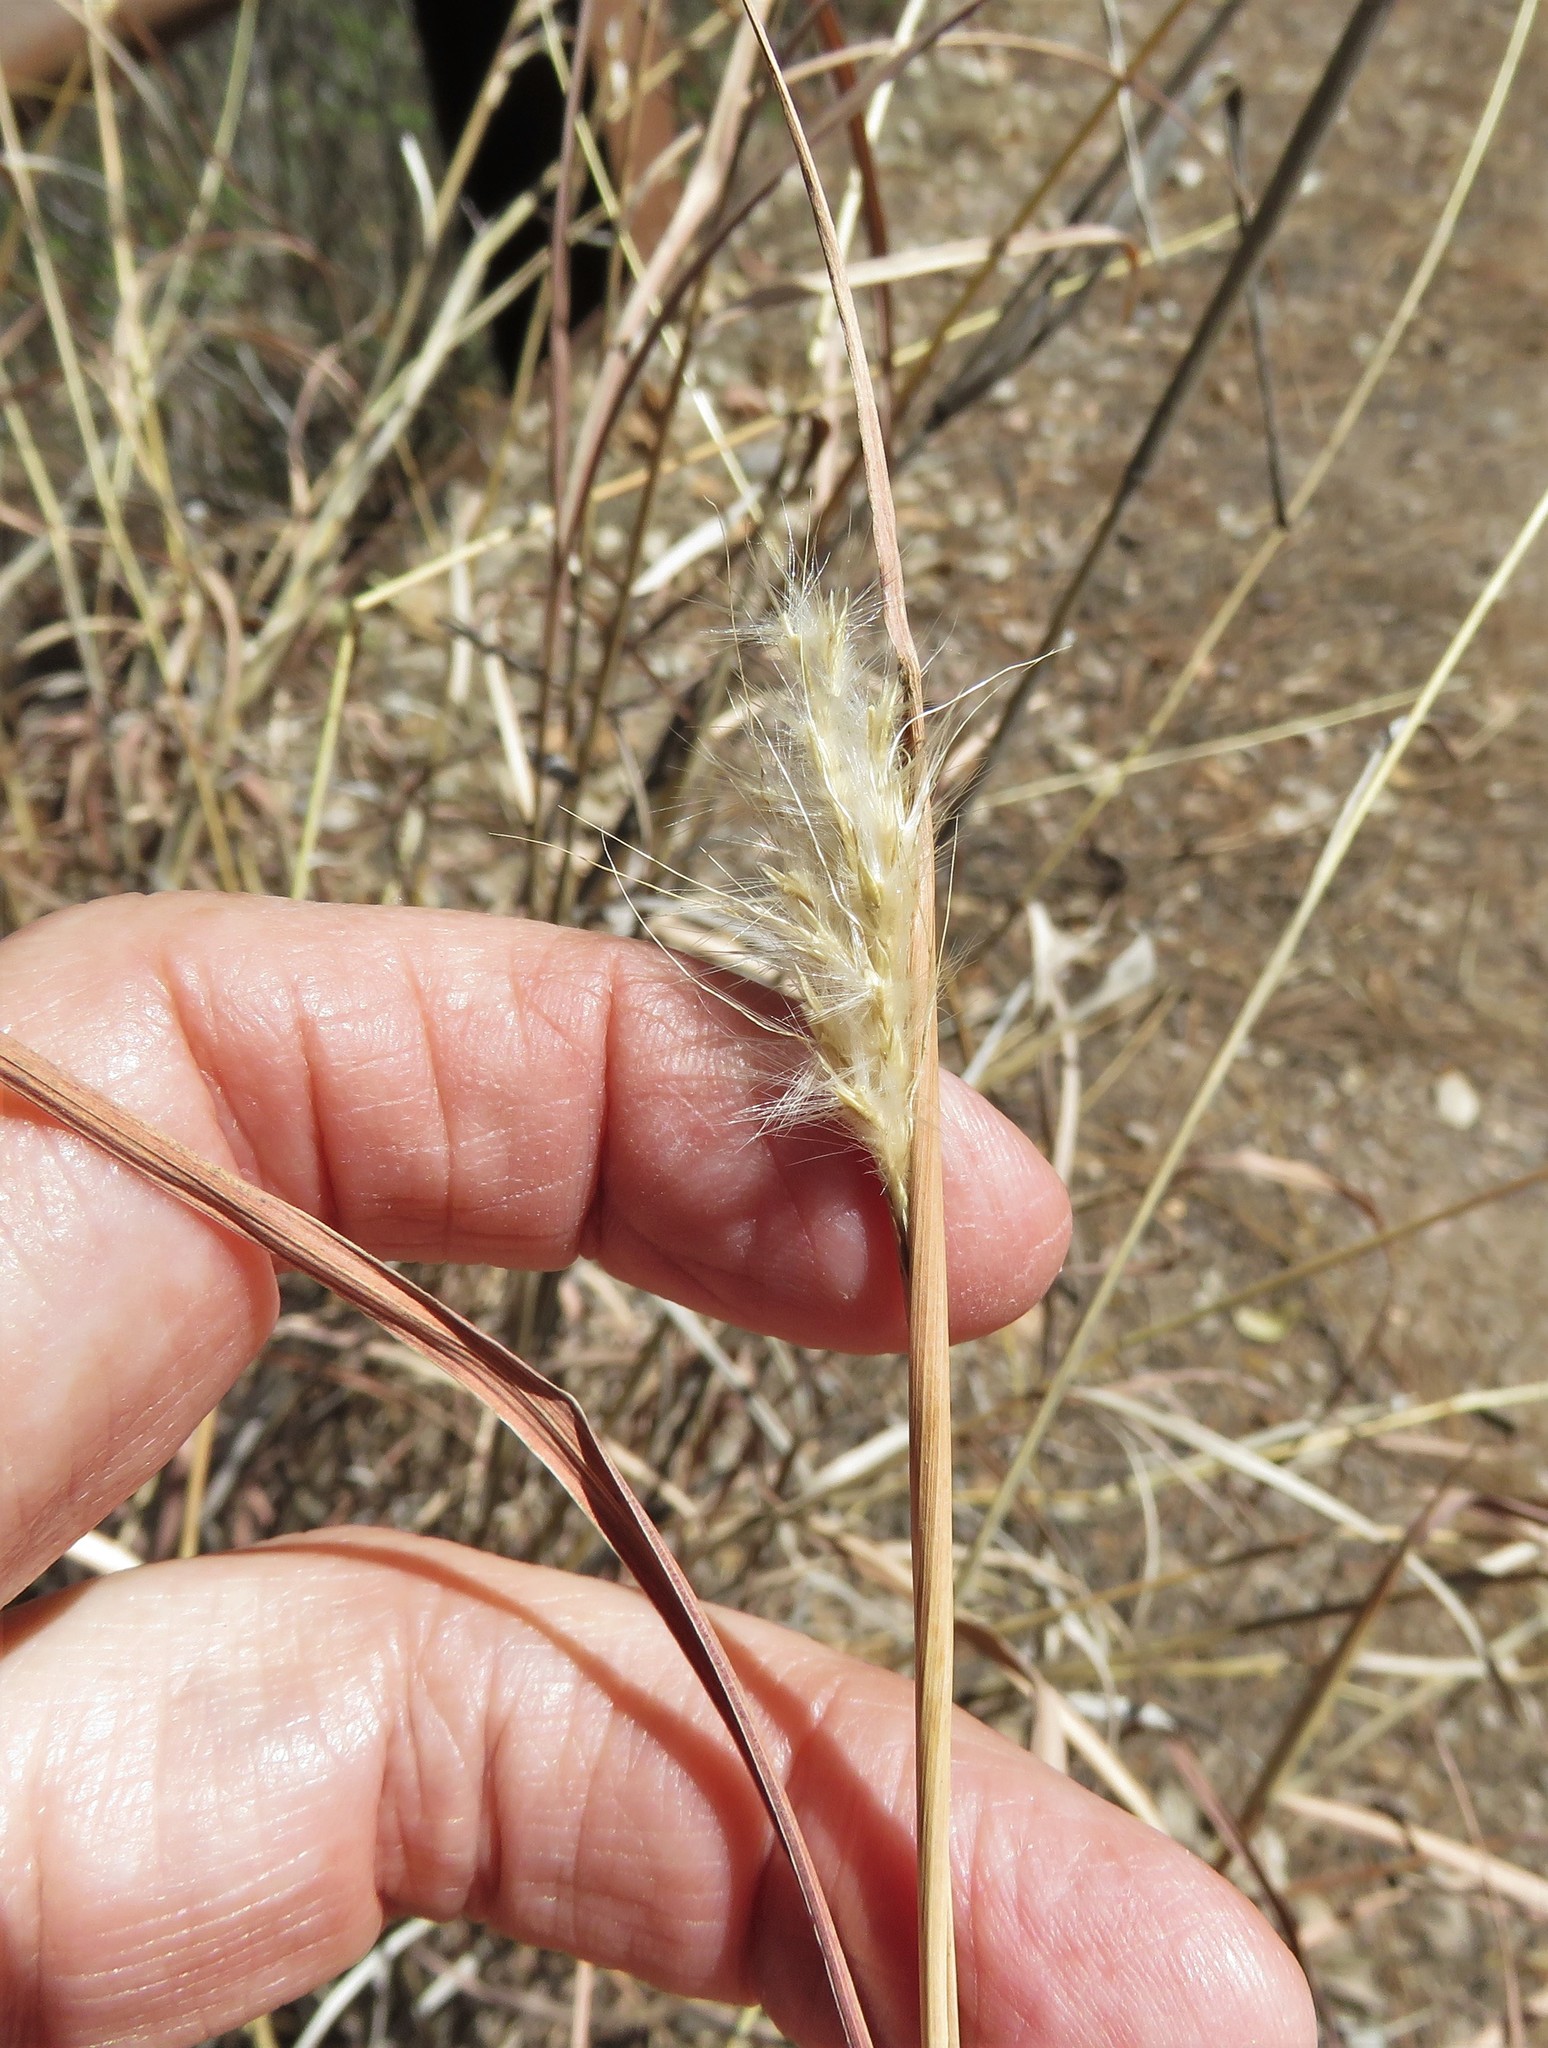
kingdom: Plantae
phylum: Tracheophyta
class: Liliopsida
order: Poales
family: Poaceae
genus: Bothriochloa
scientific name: Bothriochloa barbinodis
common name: Cane bluestem
